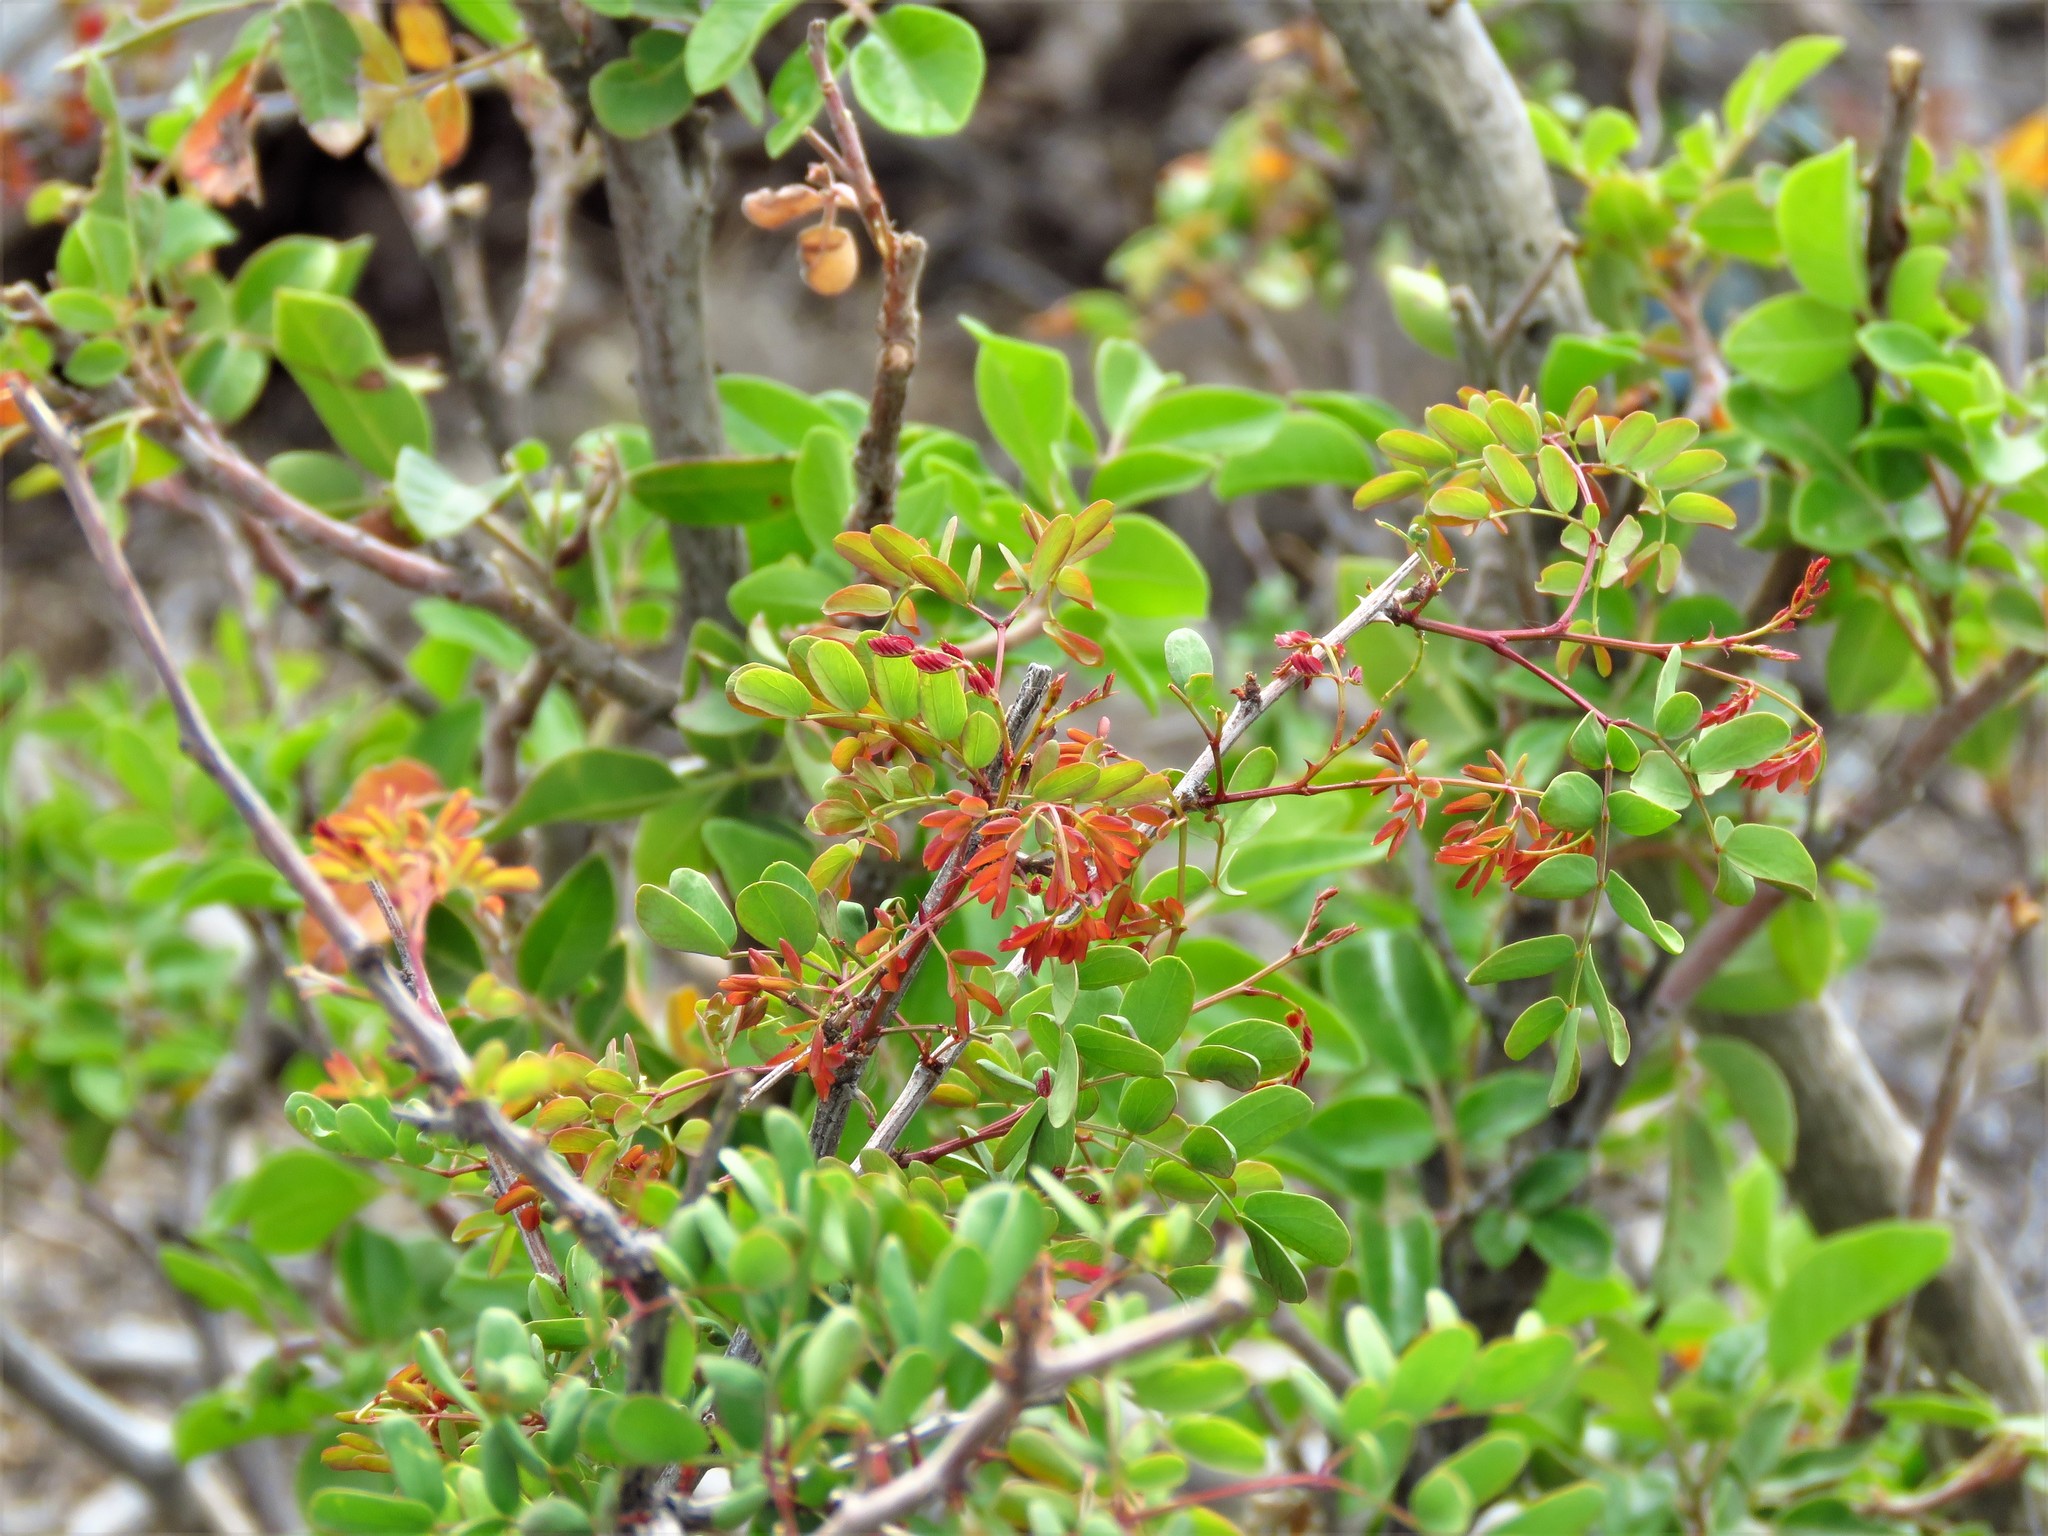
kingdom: Plantae
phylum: Tracheophyta
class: Magnoliopsida
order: Fabales
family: Fabaceae
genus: Senegalia
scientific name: Senegalia roemeriana
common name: Roemer's acacia
